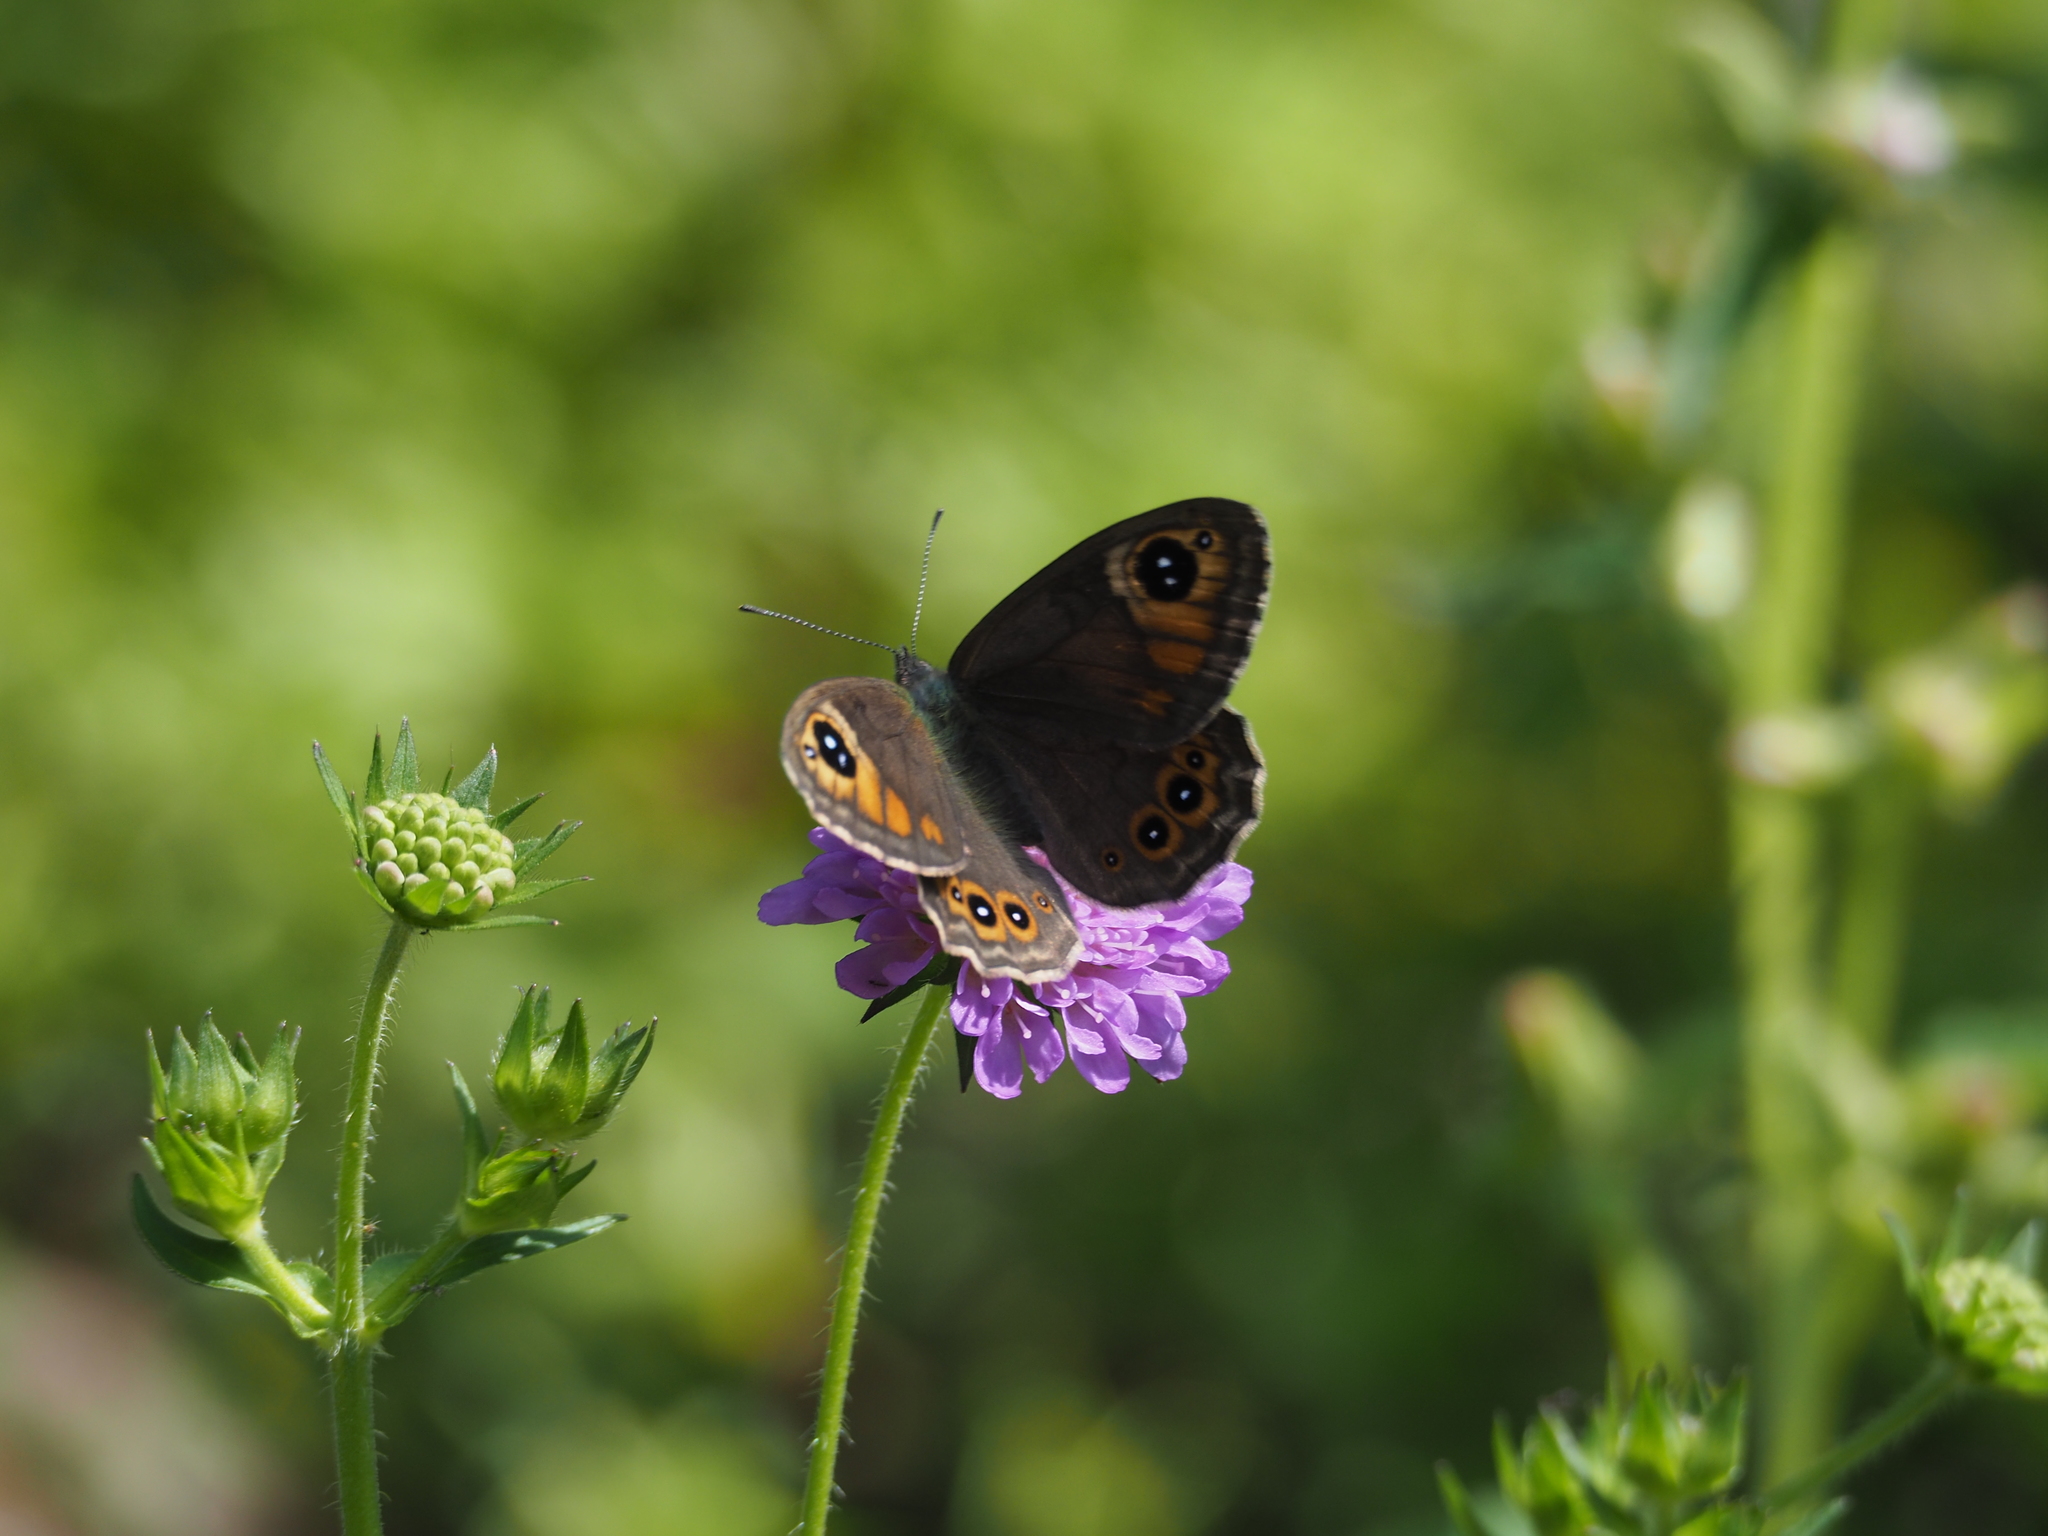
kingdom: Animalia
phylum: Arthropoda
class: Insecta
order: Lepidoptera
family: Nymphalidae
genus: Pararge
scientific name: Pararge Lasiommata maera
